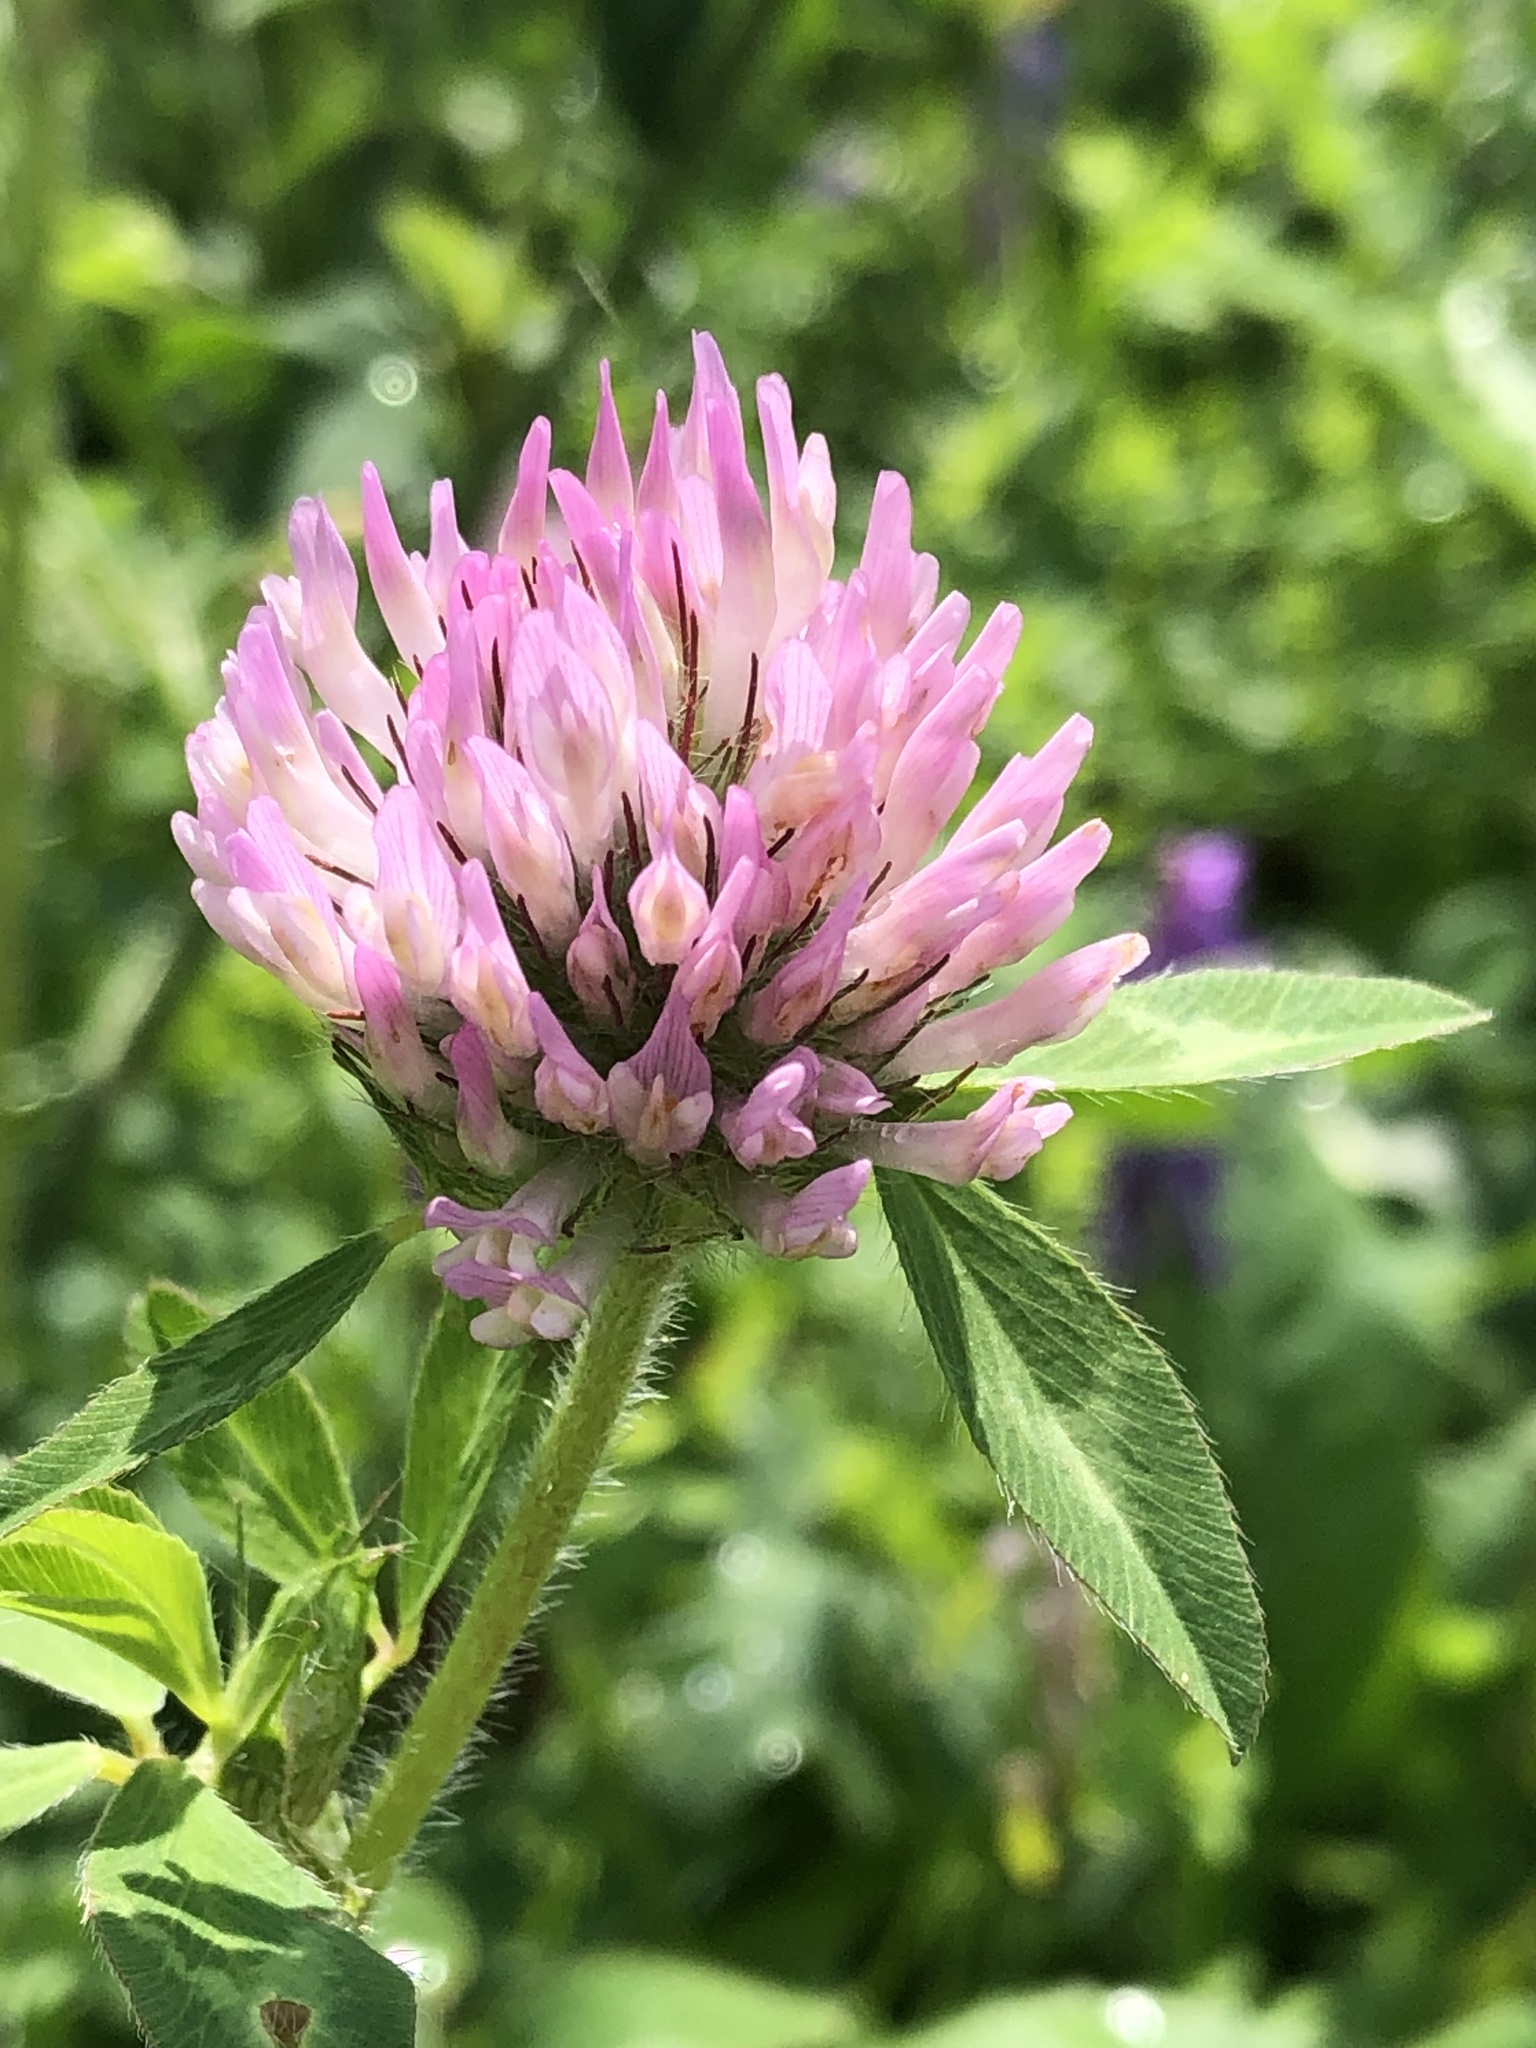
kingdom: Plantae
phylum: Tracheophyta
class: Magnoliopsida
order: Fabales
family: Fabaceae
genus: Trifolium
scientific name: Trifolium pratense
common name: Red clover
